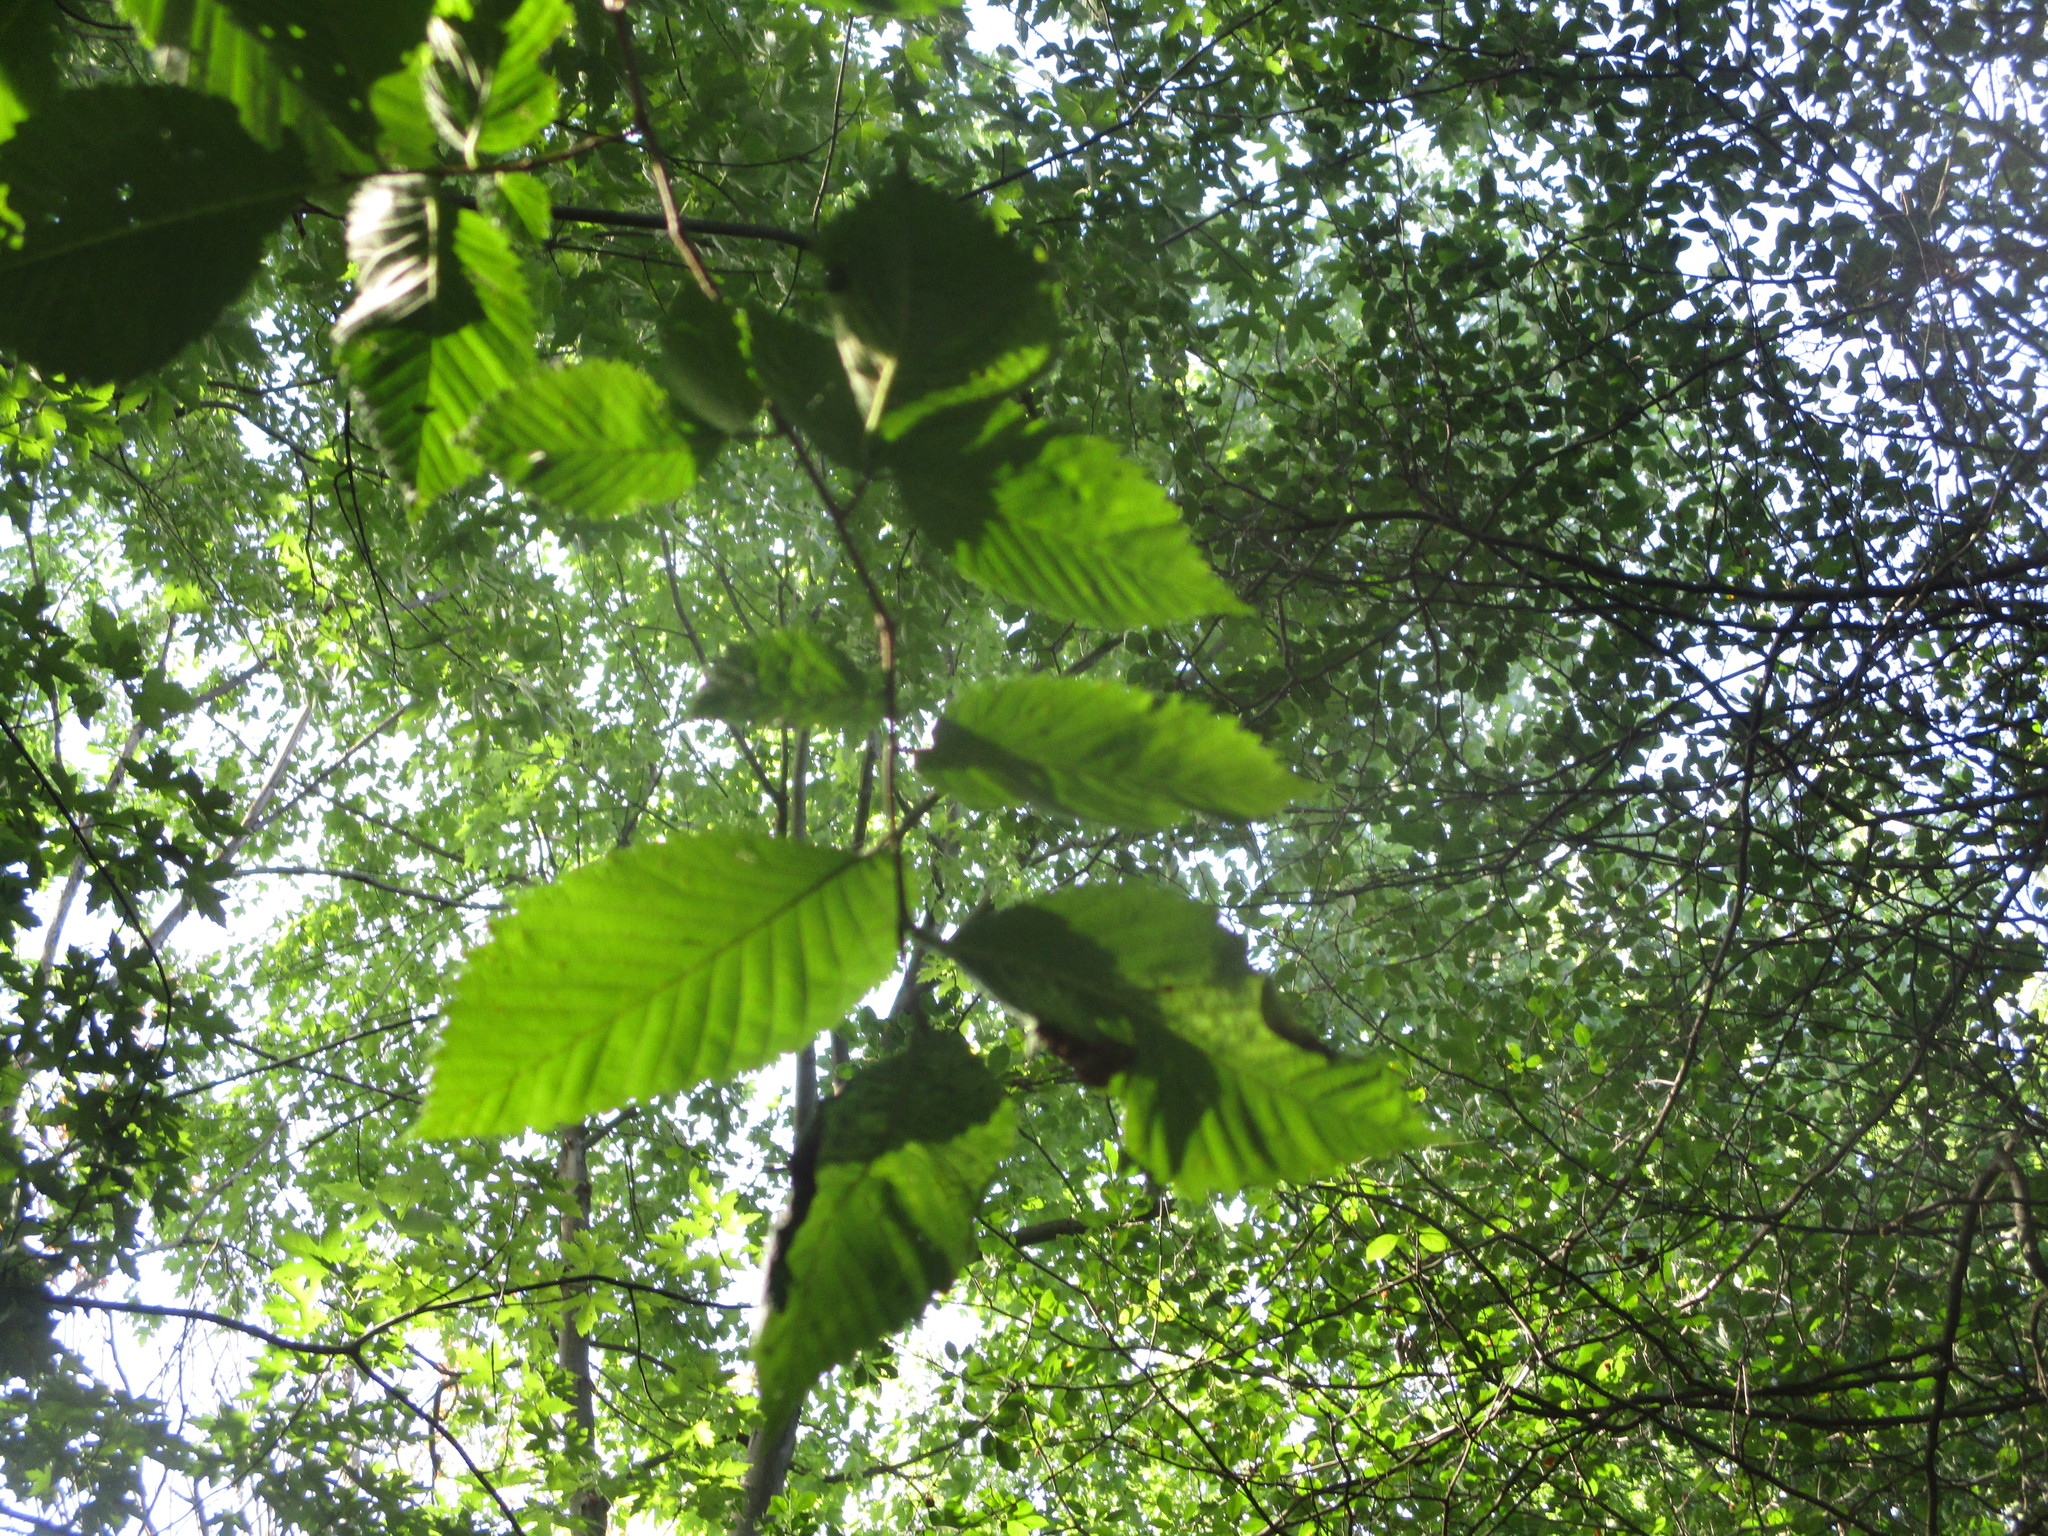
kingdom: Plantae
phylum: Tracheophyta
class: Magnoliopsida
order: Rosales
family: Ulmaceae
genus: Ulmus
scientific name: Ulmus americana
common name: American elm
